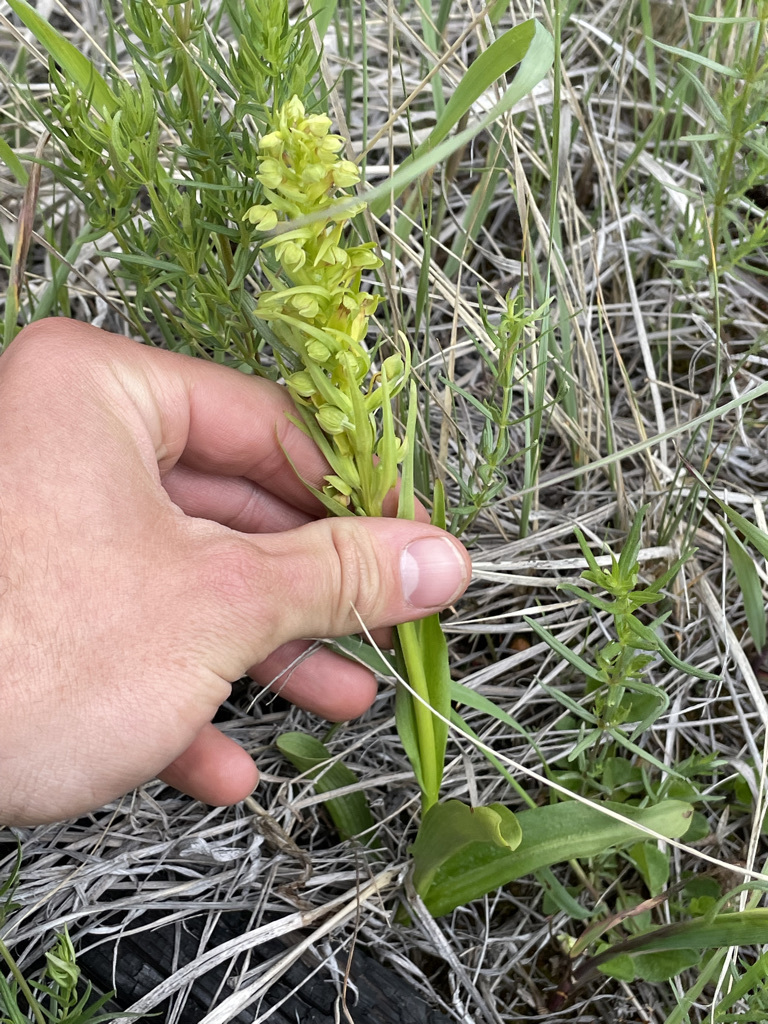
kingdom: Plantae
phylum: Tracheophyta
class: Liliopsida
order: Asparagales
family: Orchidaceae
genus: Dactylorhiza
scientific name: Dactylorhiza viridis
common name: Longbract frog orchid
